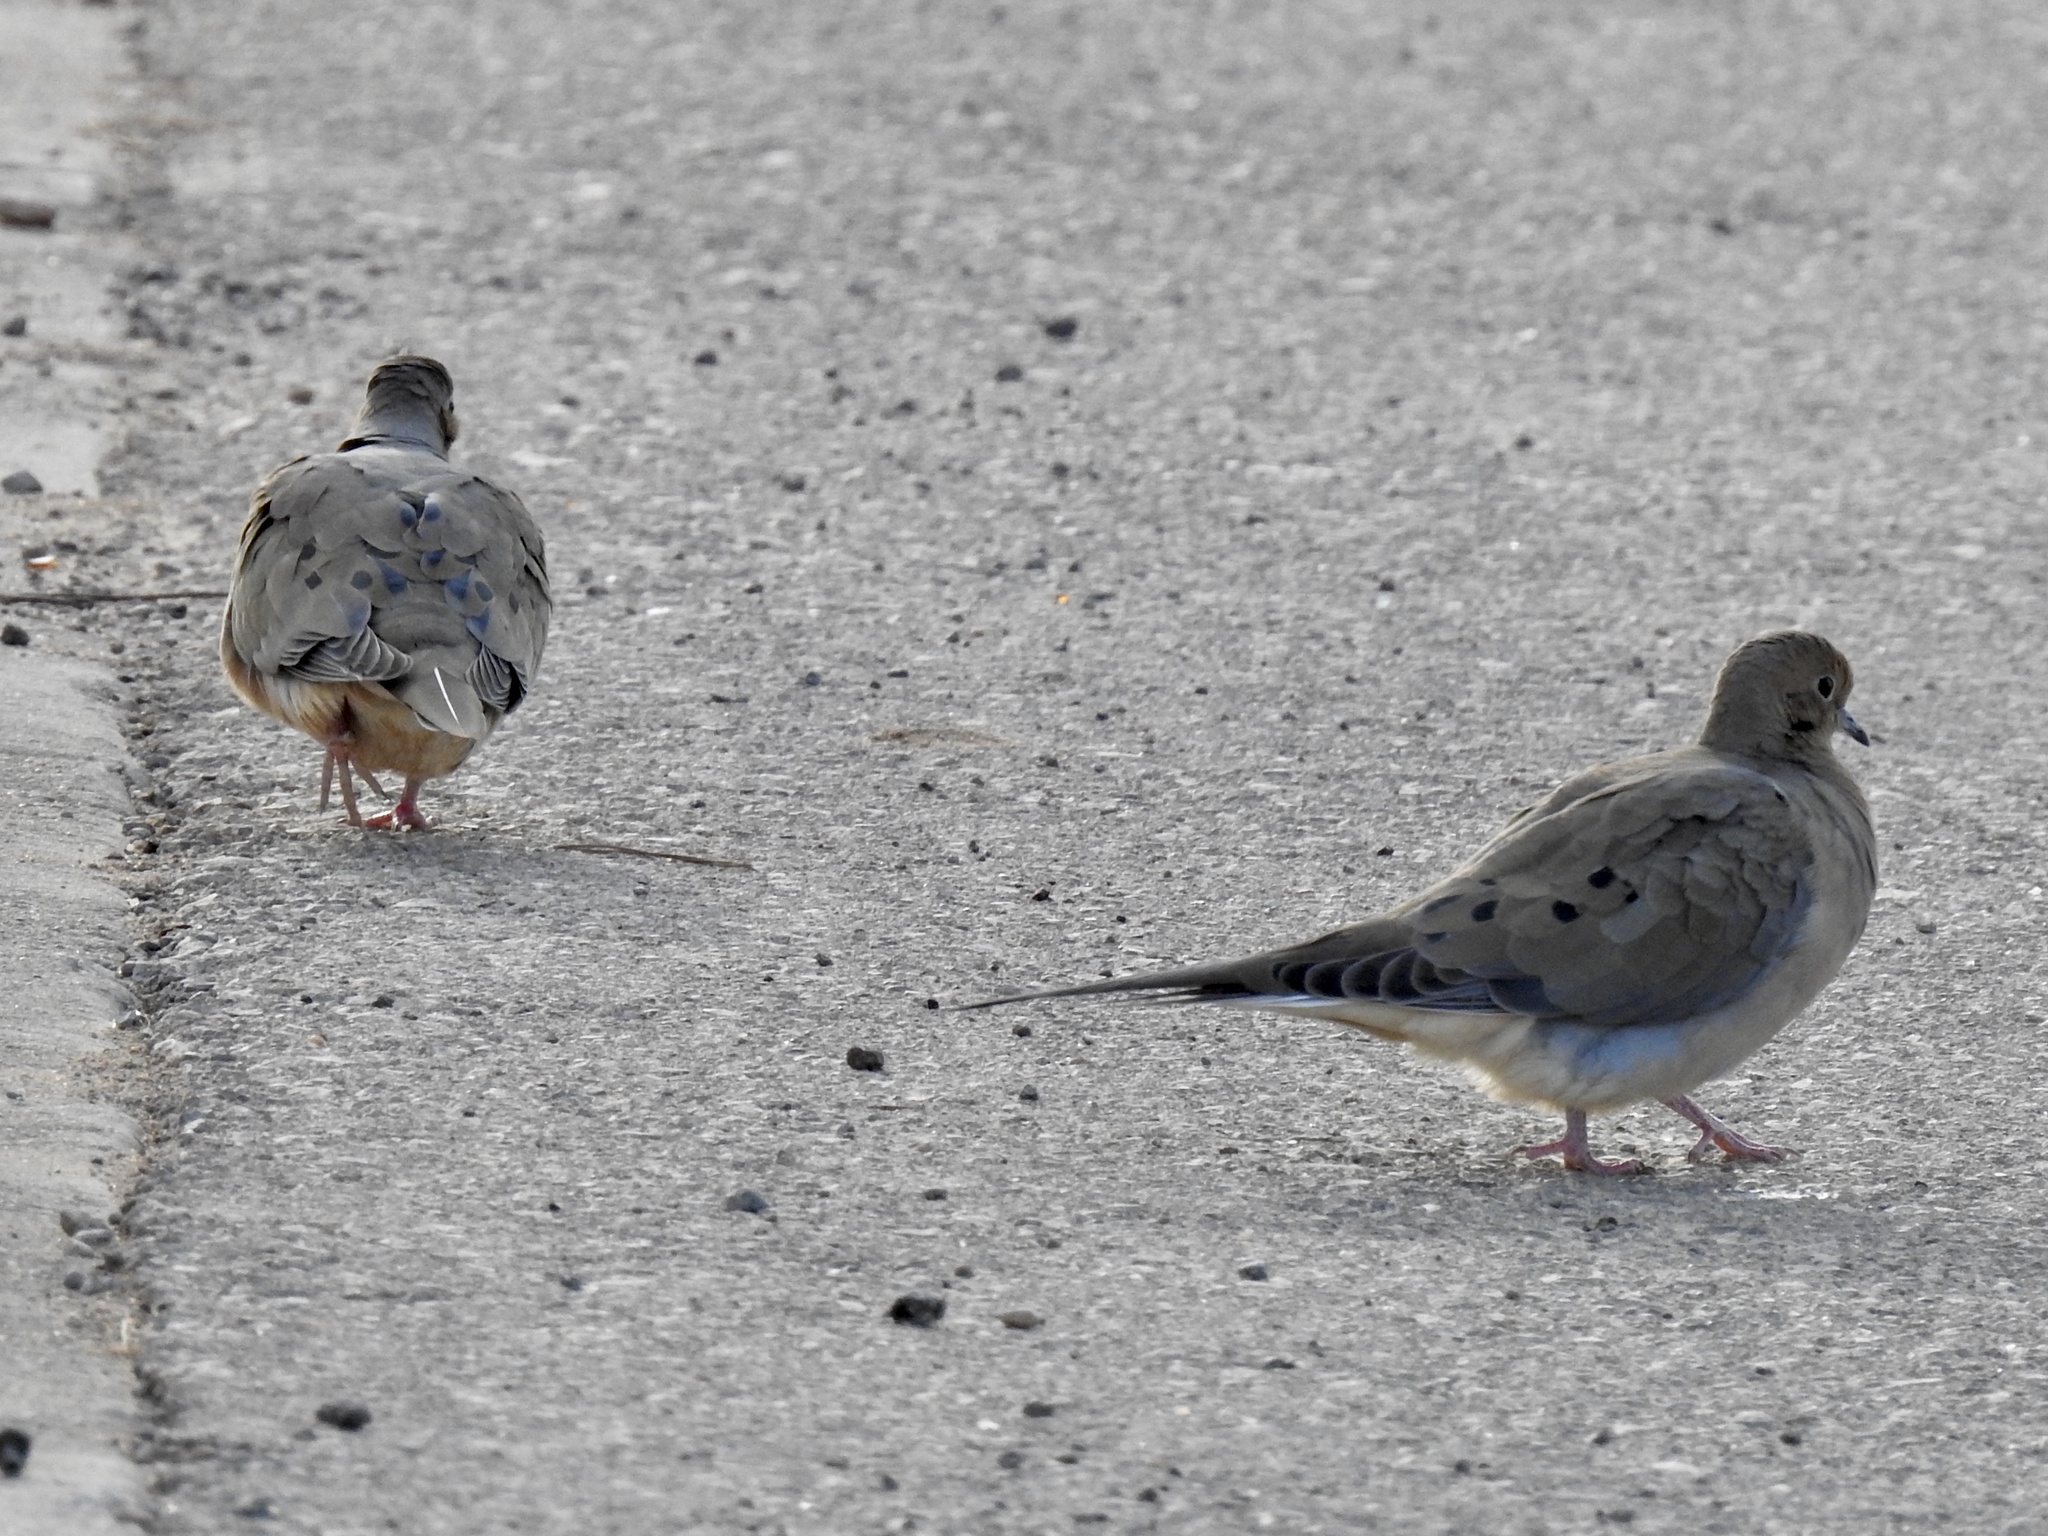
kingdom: Animalia
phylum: Chordata
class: Aves
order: Columbiformes
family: Columbidae
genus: Zenaida
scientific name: Zenaida macroura
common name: Mourning dove
